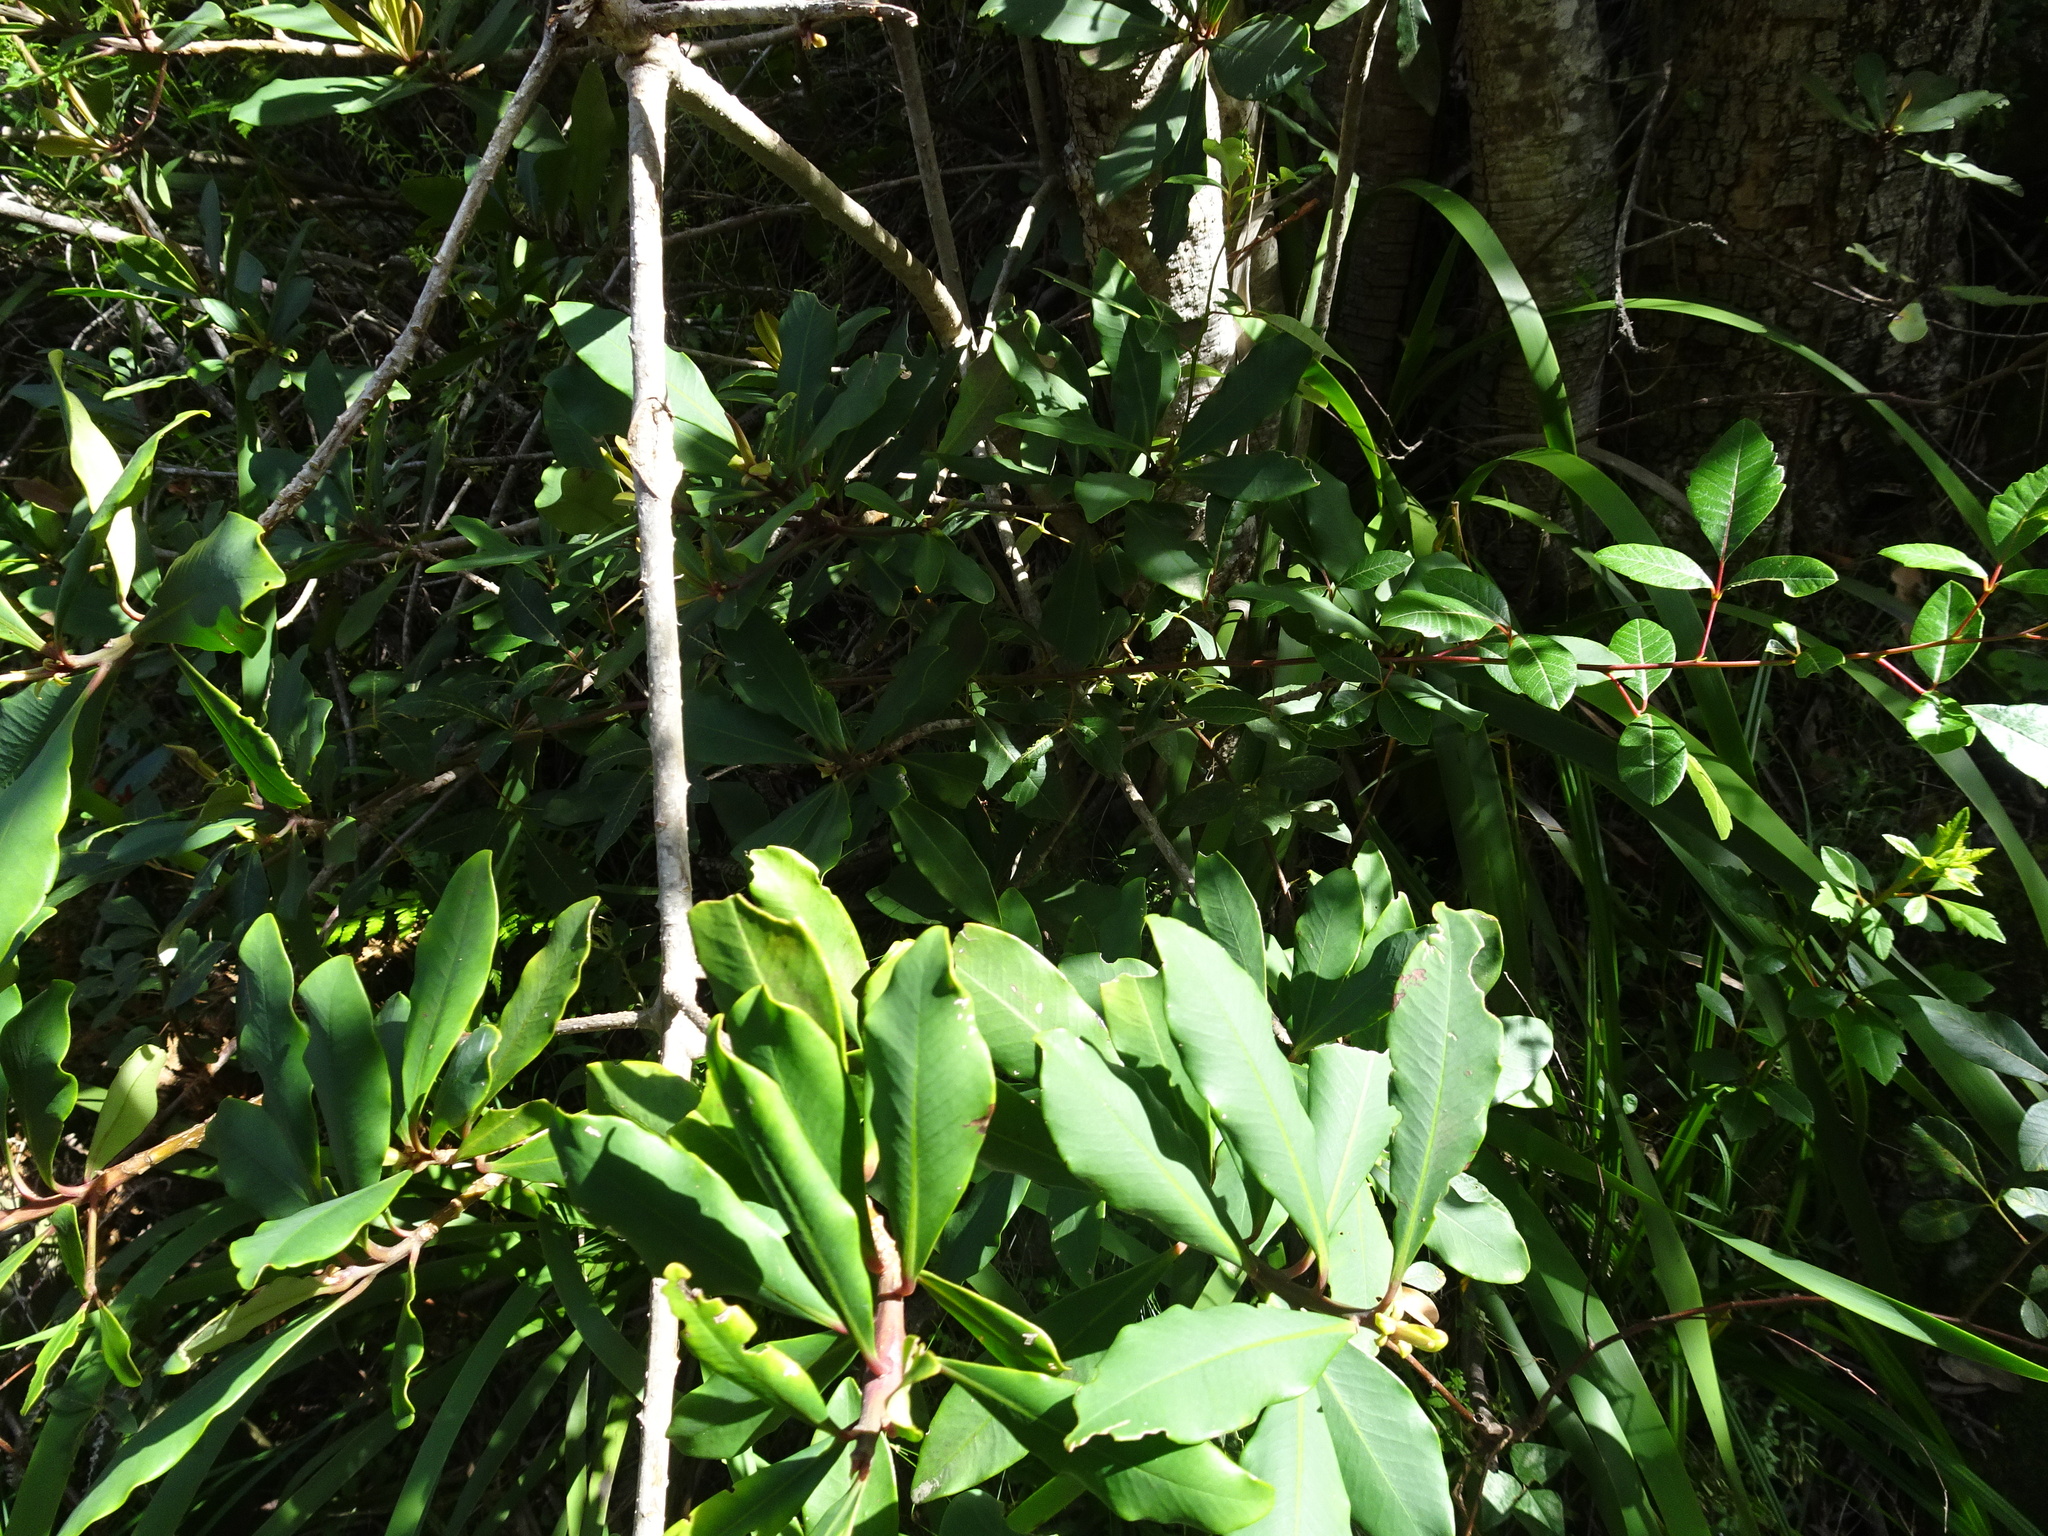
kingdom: Plantae
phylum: Tracheophyta
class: Magnoliopsida
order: Ericales
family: Primulaceae
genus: Myrsine
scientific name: Myrsine melanophloeos
